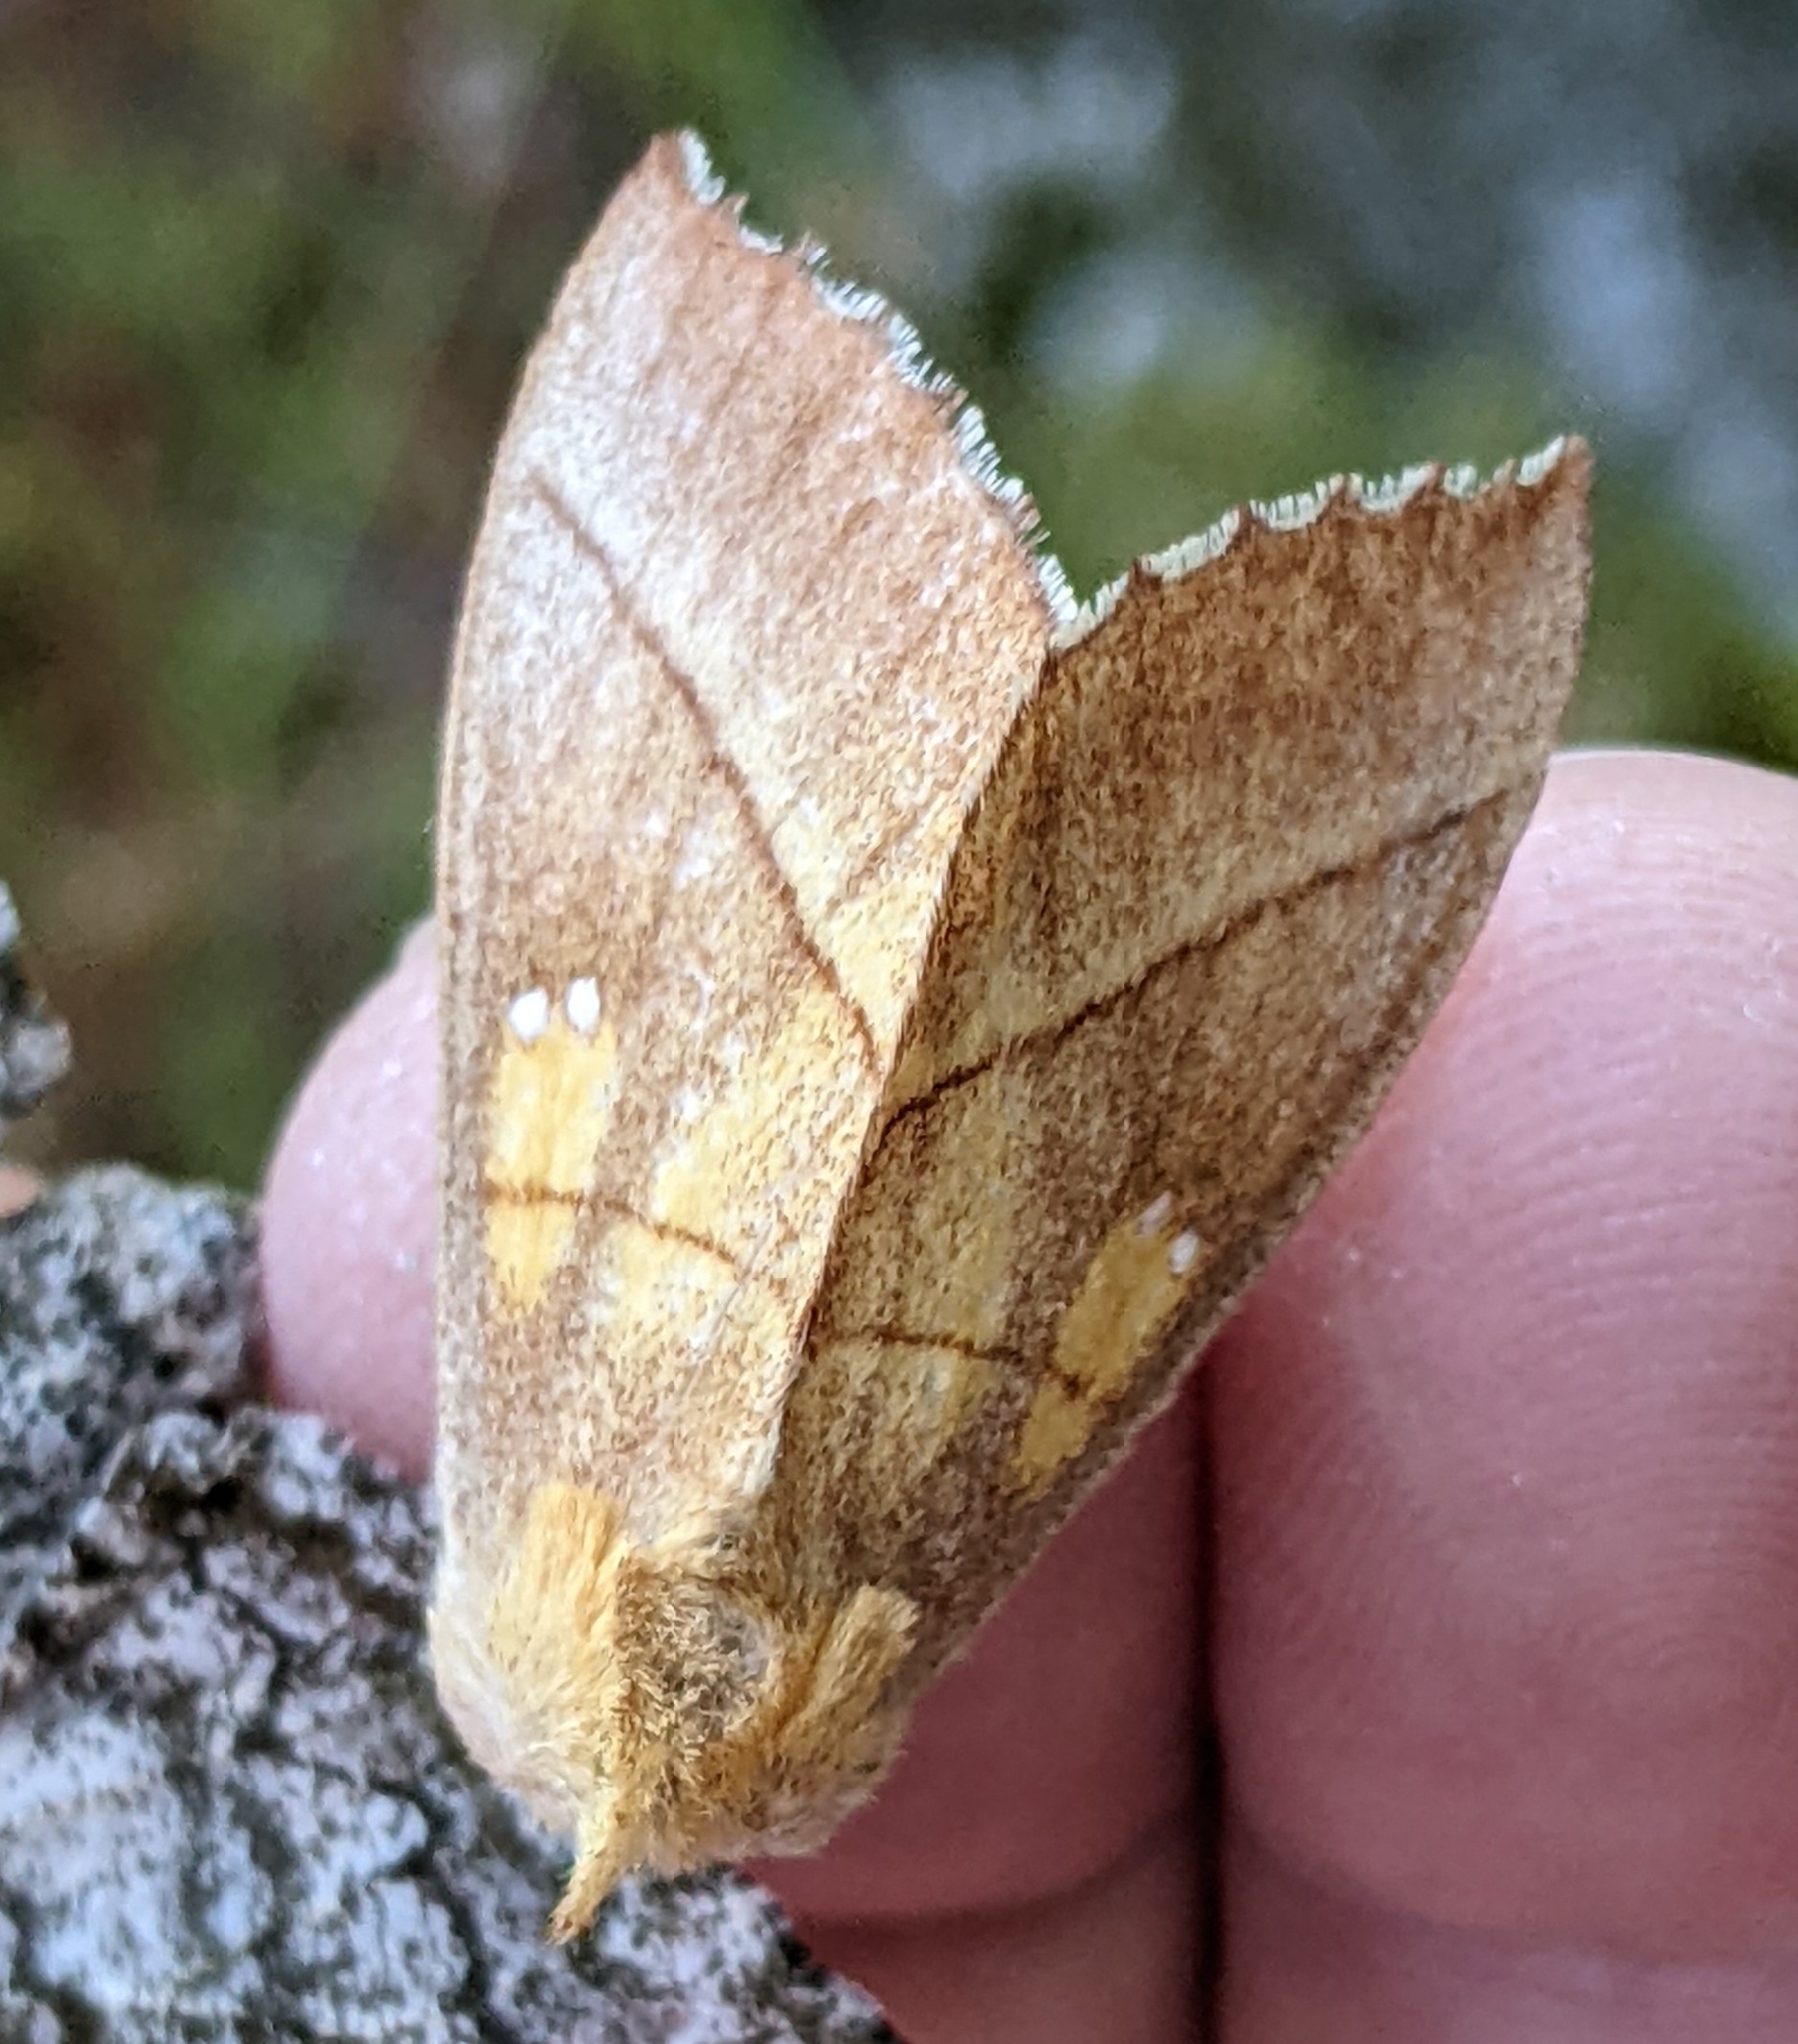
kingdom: Animalia
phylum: Arthropoda
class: Insecta
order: Lepidoptera
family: Notodontidae
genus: Nadata
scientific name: Nadata gibbosa
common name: White-dotted prominent
